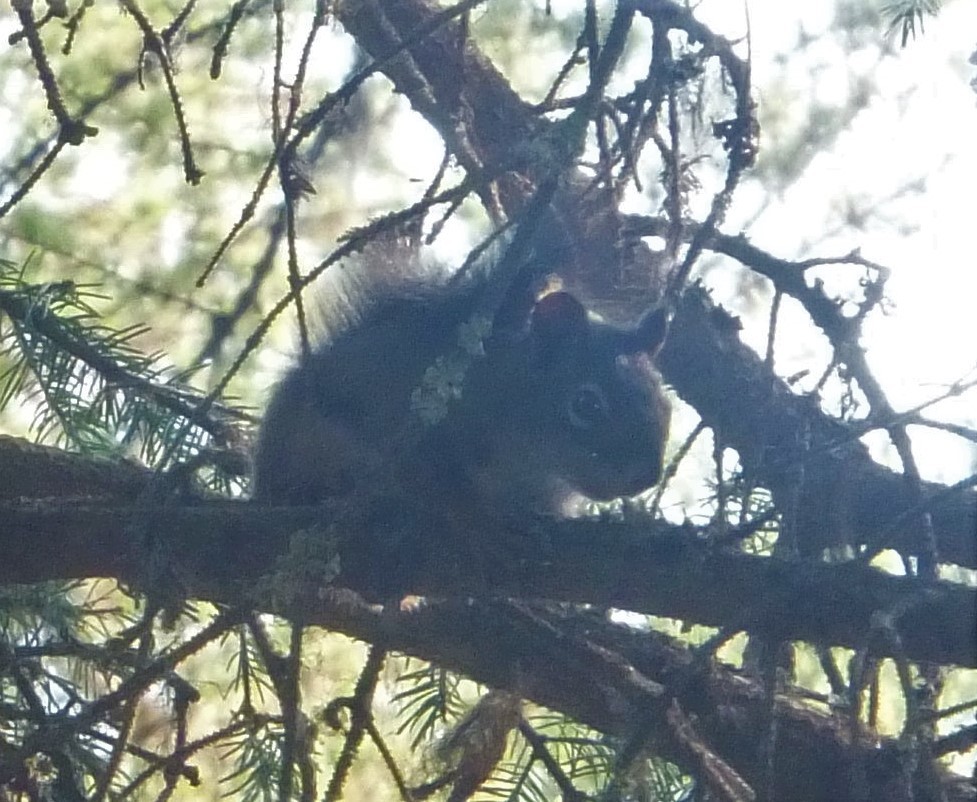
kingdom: Animalia
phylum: Chordata
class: Mammalia
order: Rodentia
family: Sciuridae
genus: Tamiasciurus
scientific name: Tamiasciurus hudsonicus
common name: Red squirrel
